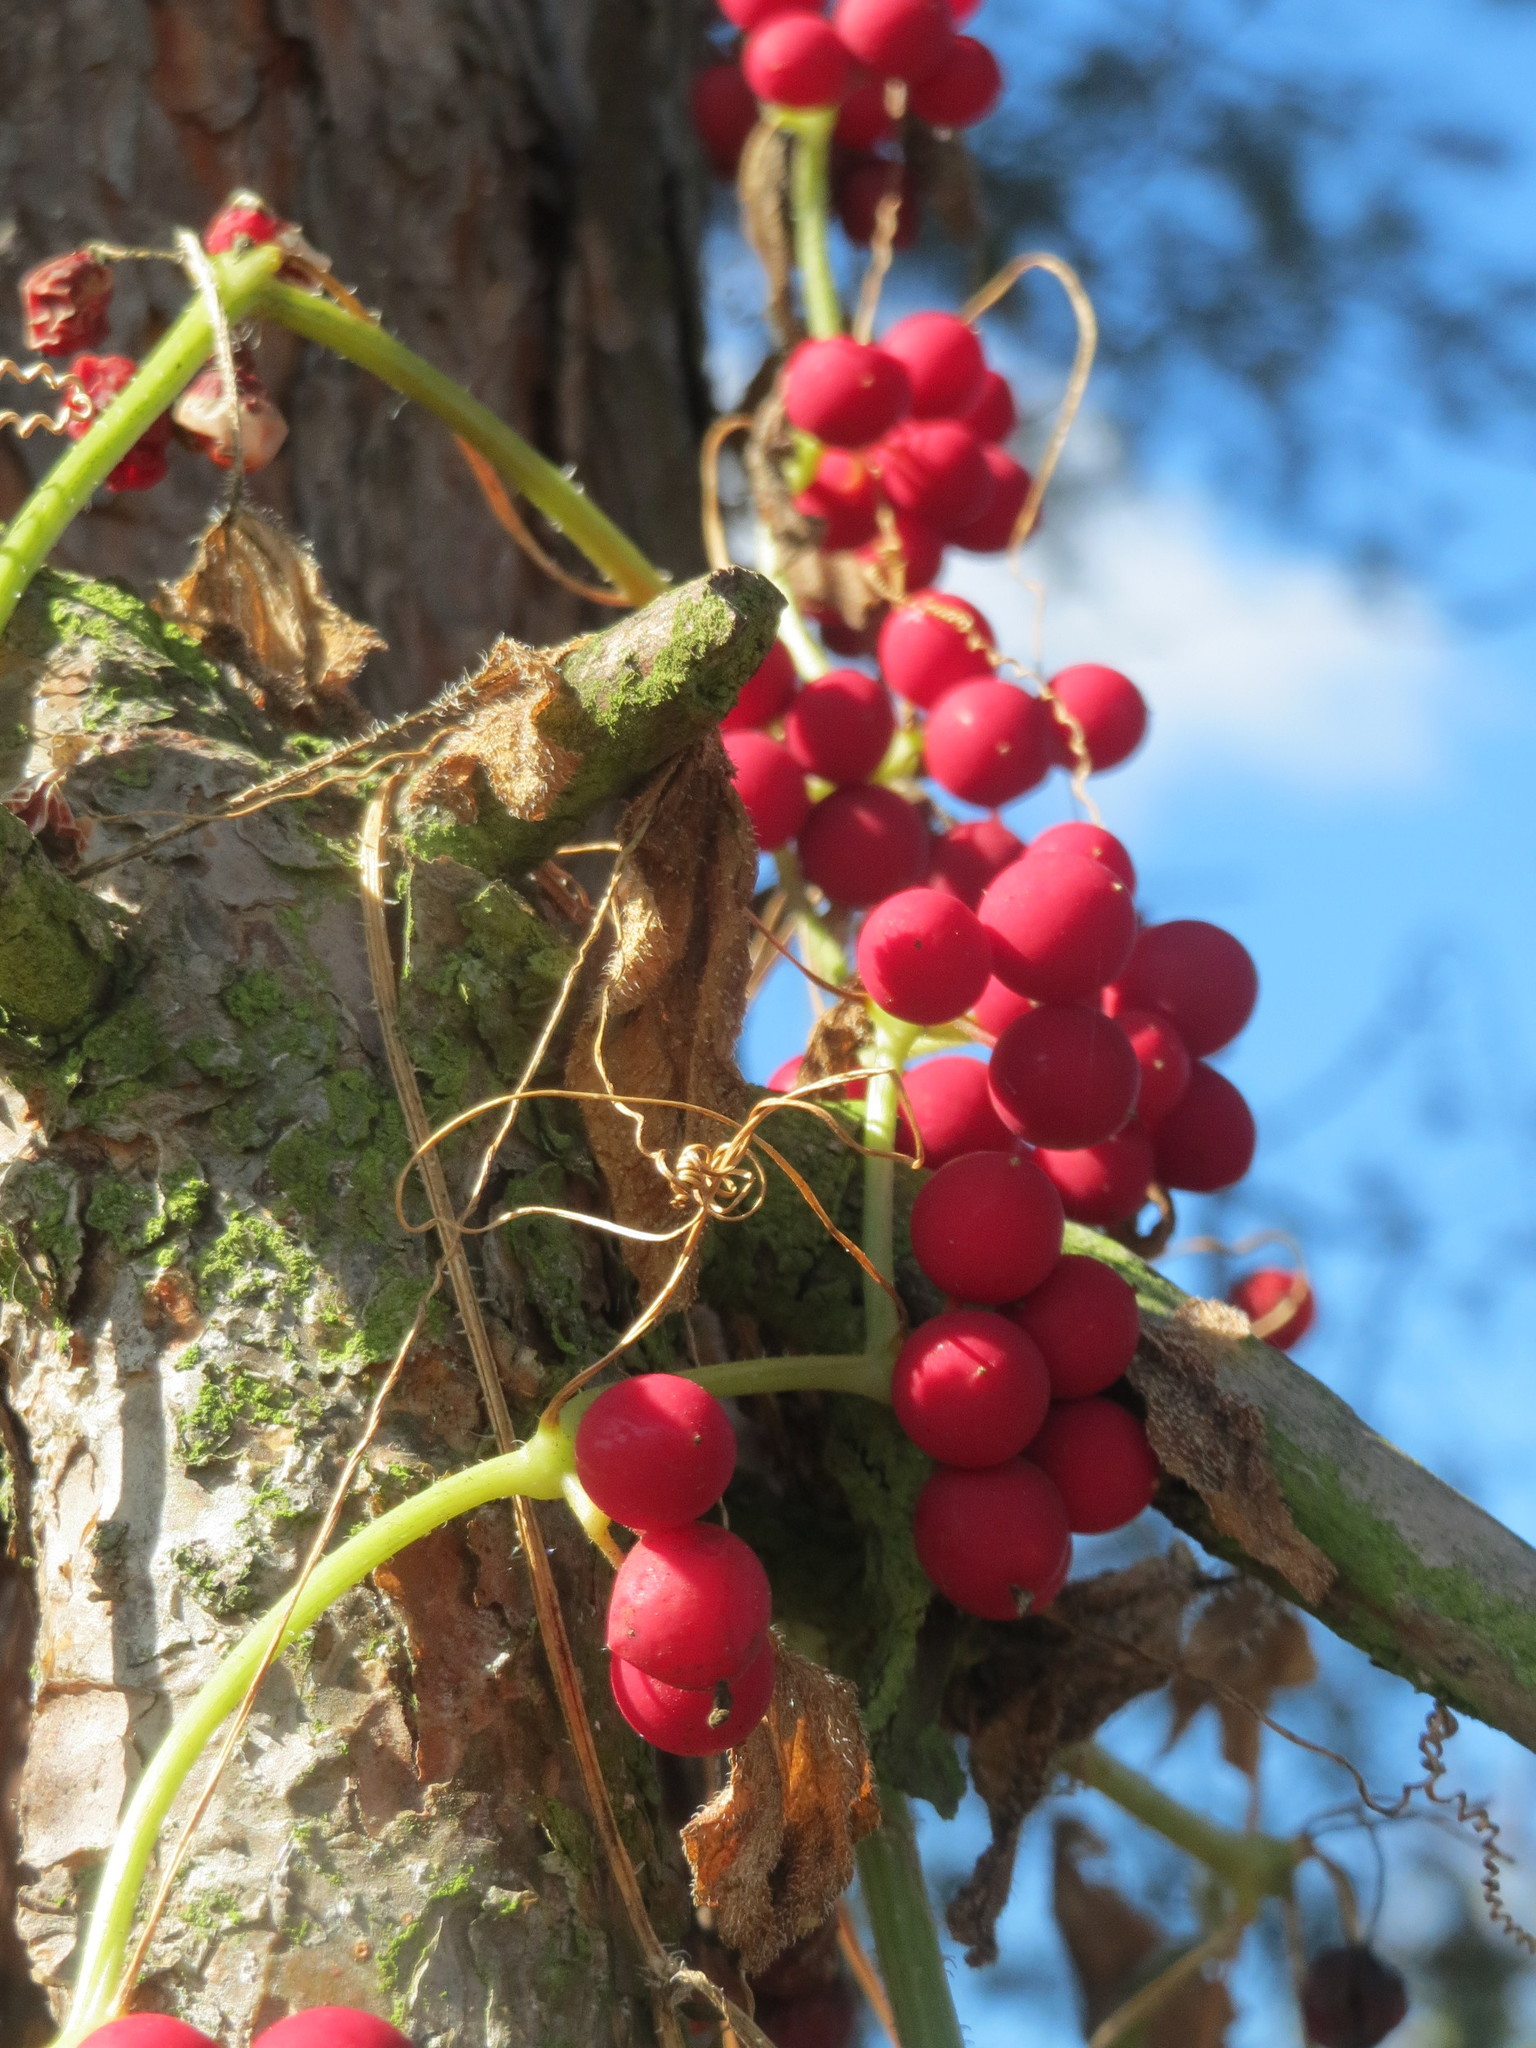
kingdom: Plantae
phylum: Tracheophyta
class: Magnoliopsida
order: Cucurbitales
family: Cucurbitaceae
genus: Bryonia
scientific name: Bryonia dioica
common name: White bryony
